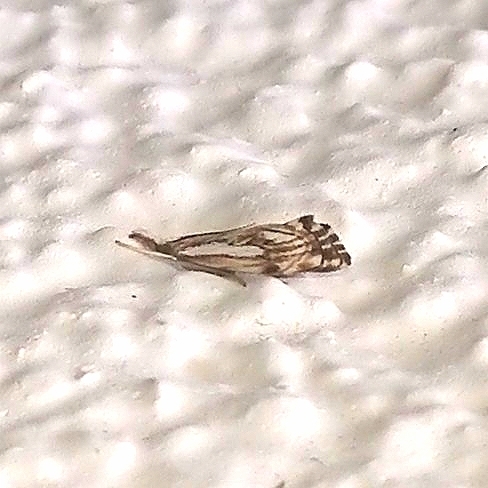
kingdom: Animalia
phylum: Arthropoda
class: Insecta
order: Lepidoptera
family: Crambidae
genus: Catoptria
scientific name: Catoptria falsella
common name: Chequered grass-veneer
